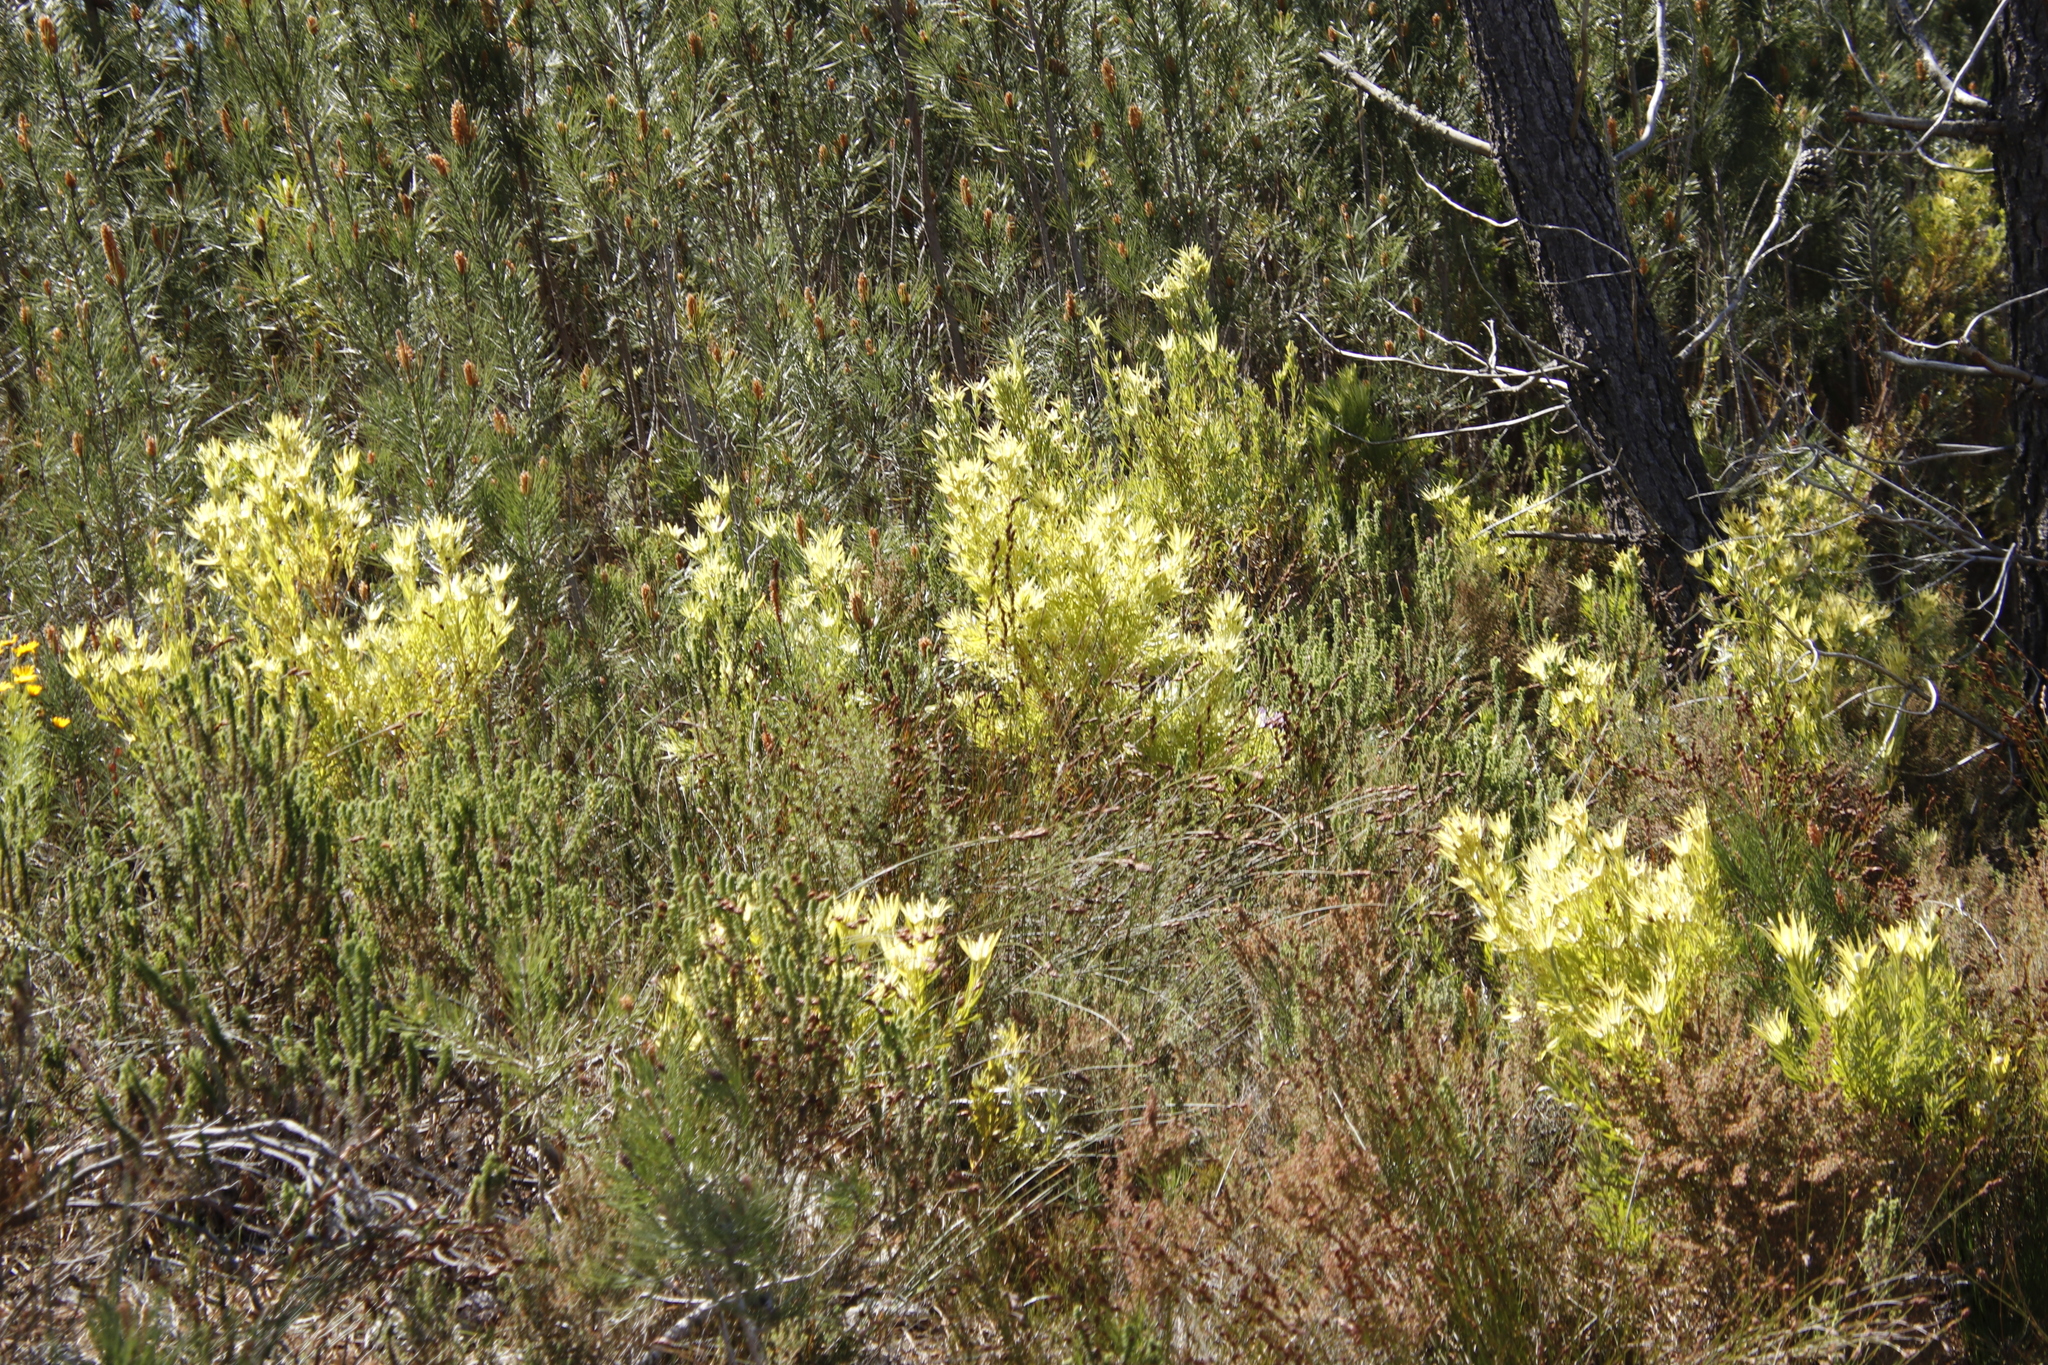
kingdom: Plantae
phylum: Tracheophyta
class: Magnoliopsida
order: Proteales
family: Proteaceae
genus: Leucadendron
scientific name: Leucadendron xanthoconus
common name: Sickle-leaf conebush
